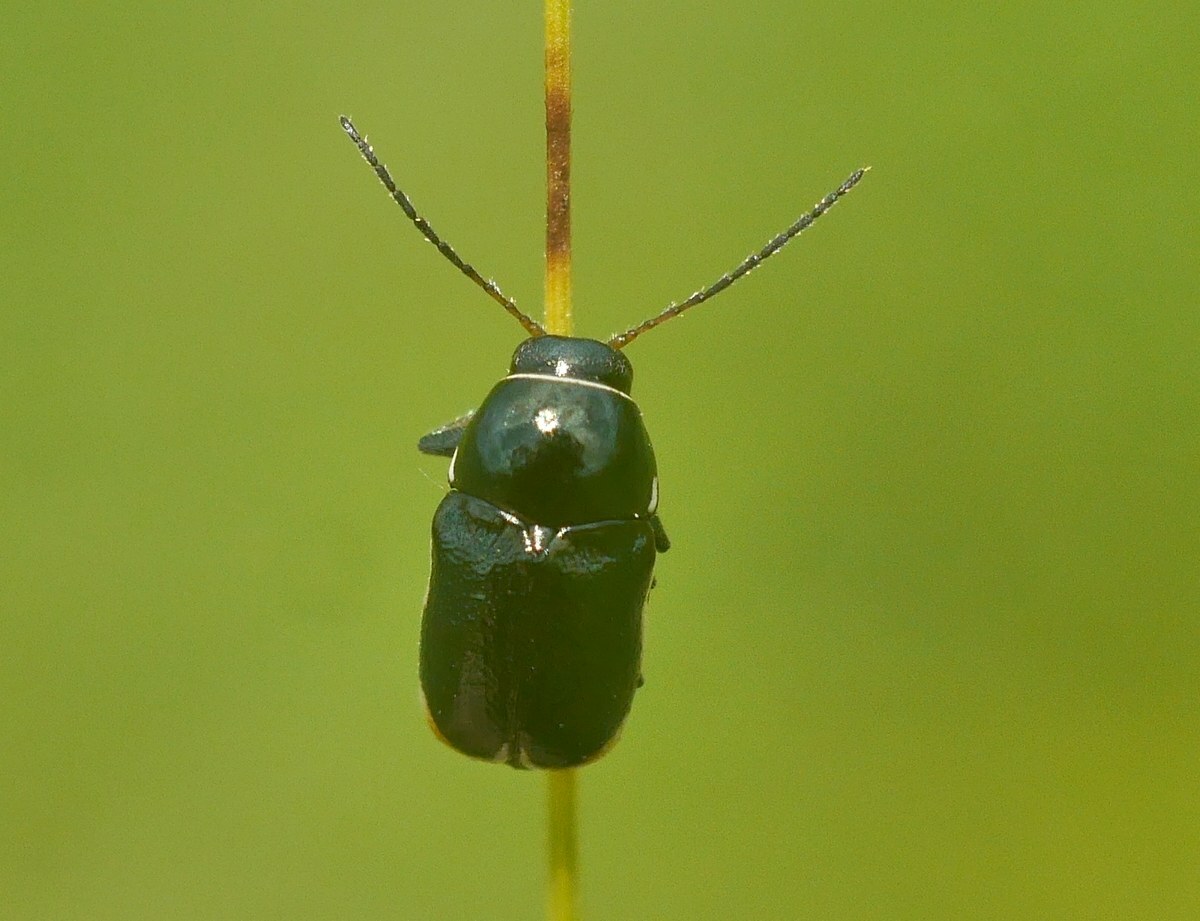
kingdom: Animalia
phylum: Arthropoda
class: Insecta
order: Coleoptera
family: Chrysomelidae
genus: Macromonycha
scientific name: Macromonycha apicalis
